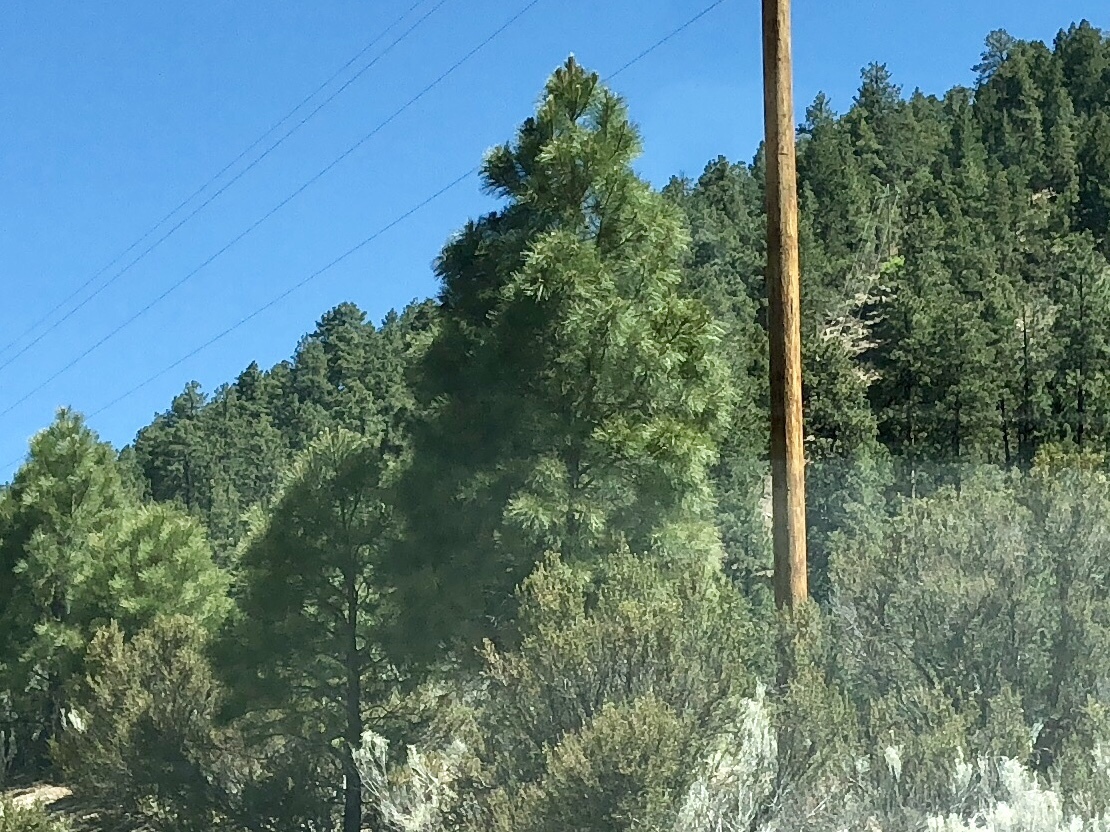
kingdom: Plantae
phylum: Tracheophyta
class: Pinopsida
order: Pinales
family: Pinaceae
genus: Pinus
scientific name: Pinus ponderosa
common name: Western yellow-pine
